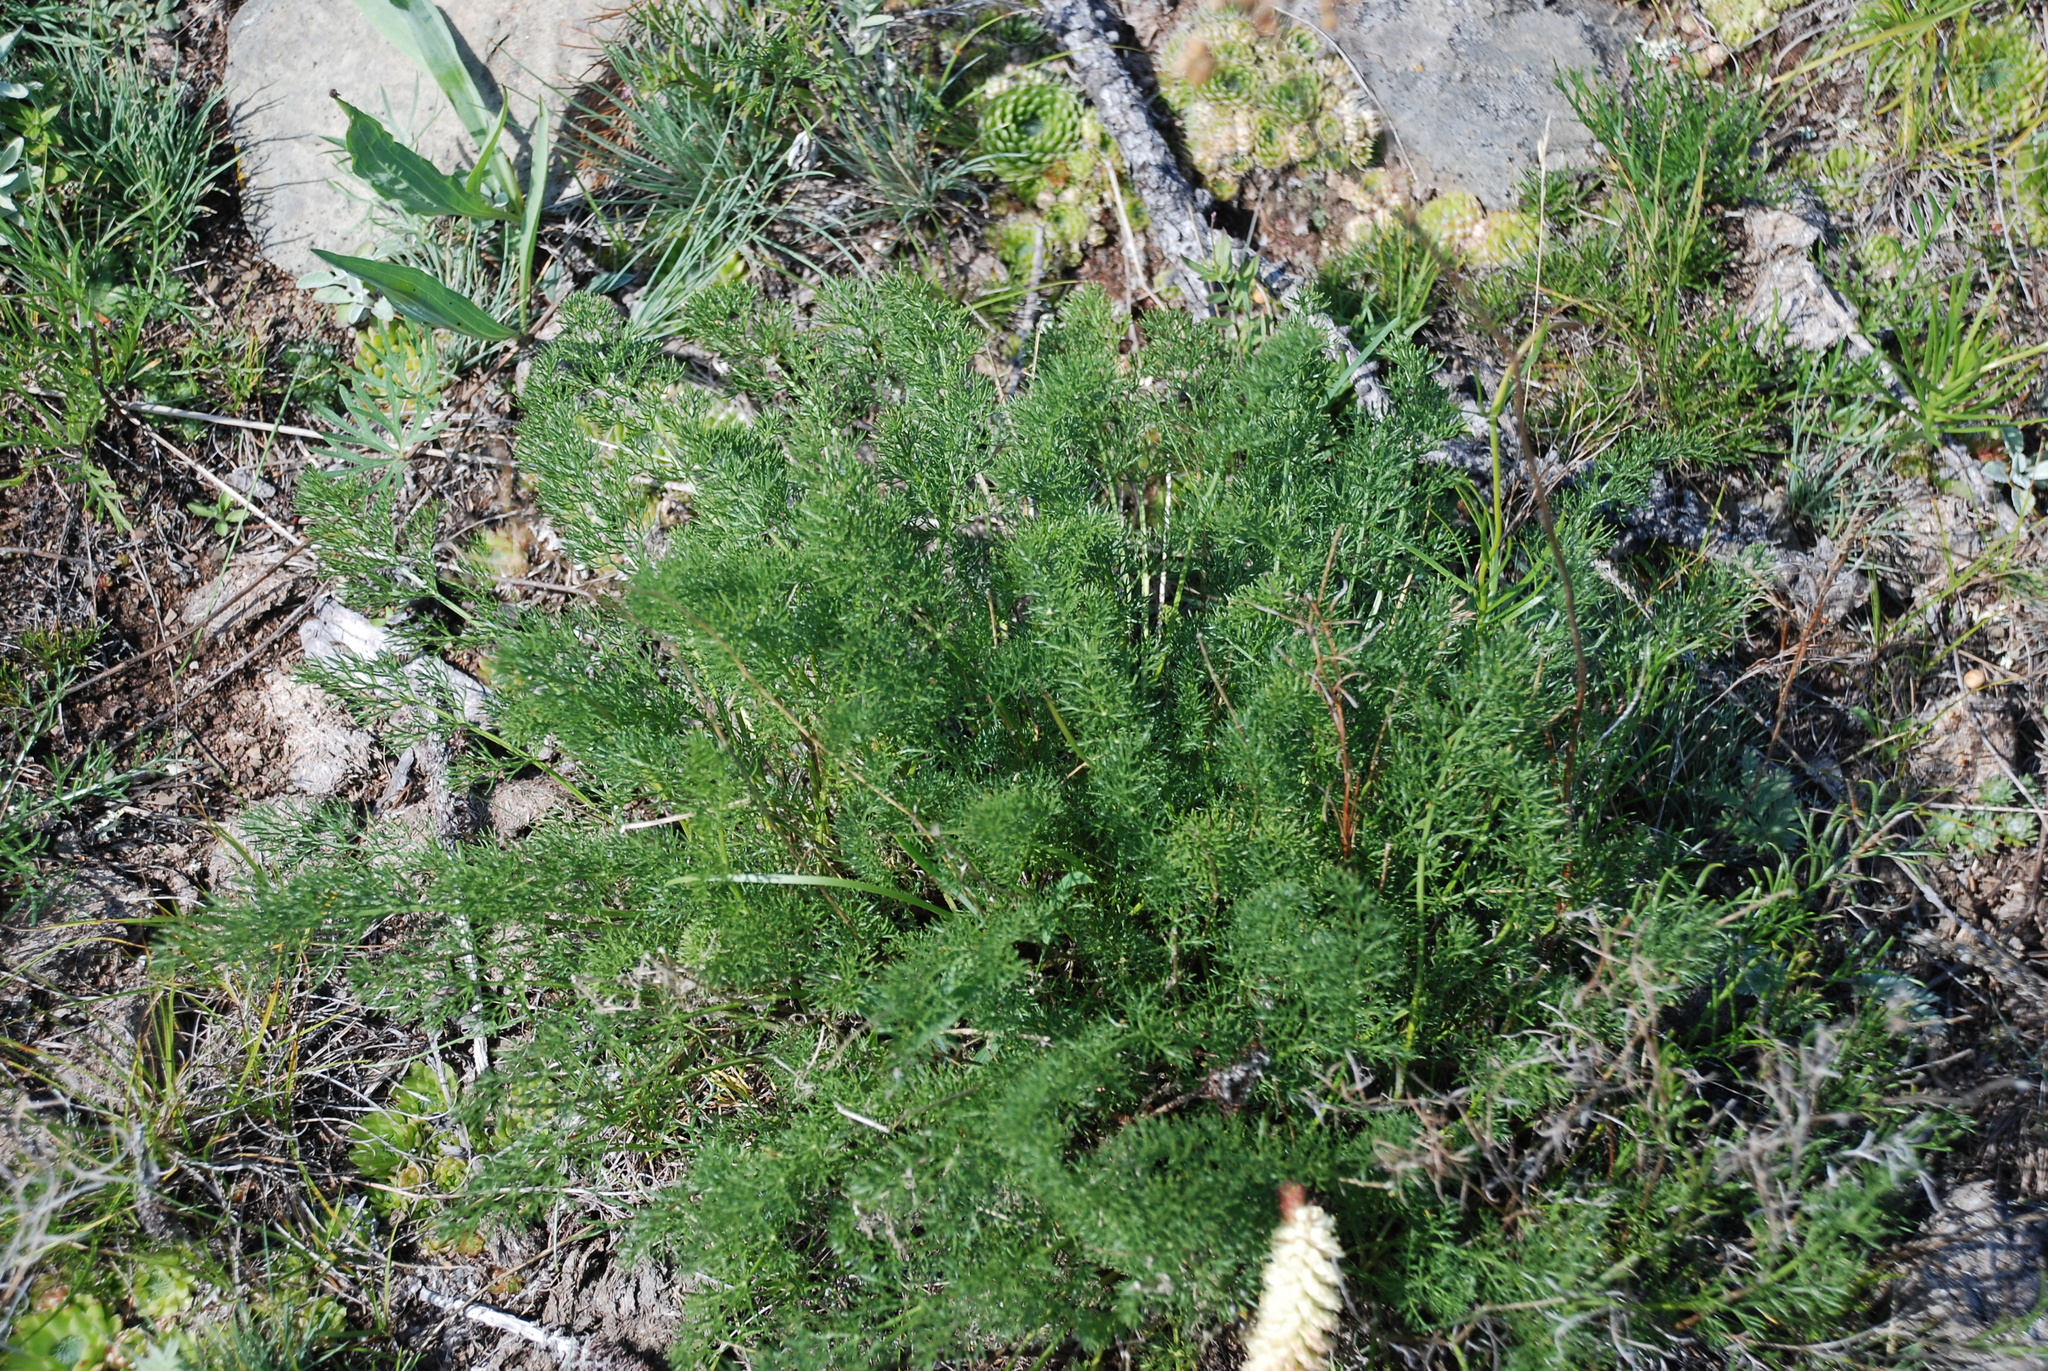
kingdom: Plantae
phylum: Tracheophyta
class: Magnoliopsida
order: Apiales
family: Apiaceae
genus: Phlojodicarpus
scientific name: Phlojodicarpus sibiricus
